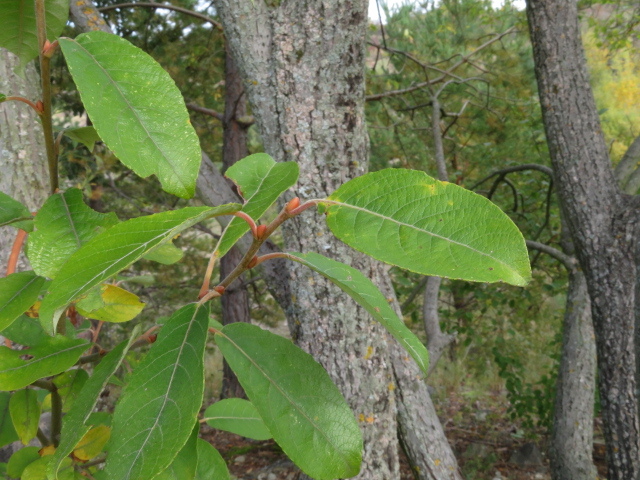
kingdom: Plantae
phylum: Tracheophyta
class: Magnoliopsida
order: Malpighiales
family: Salicaceae
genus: Salix
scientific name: Salix caprea
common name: Goat willow
